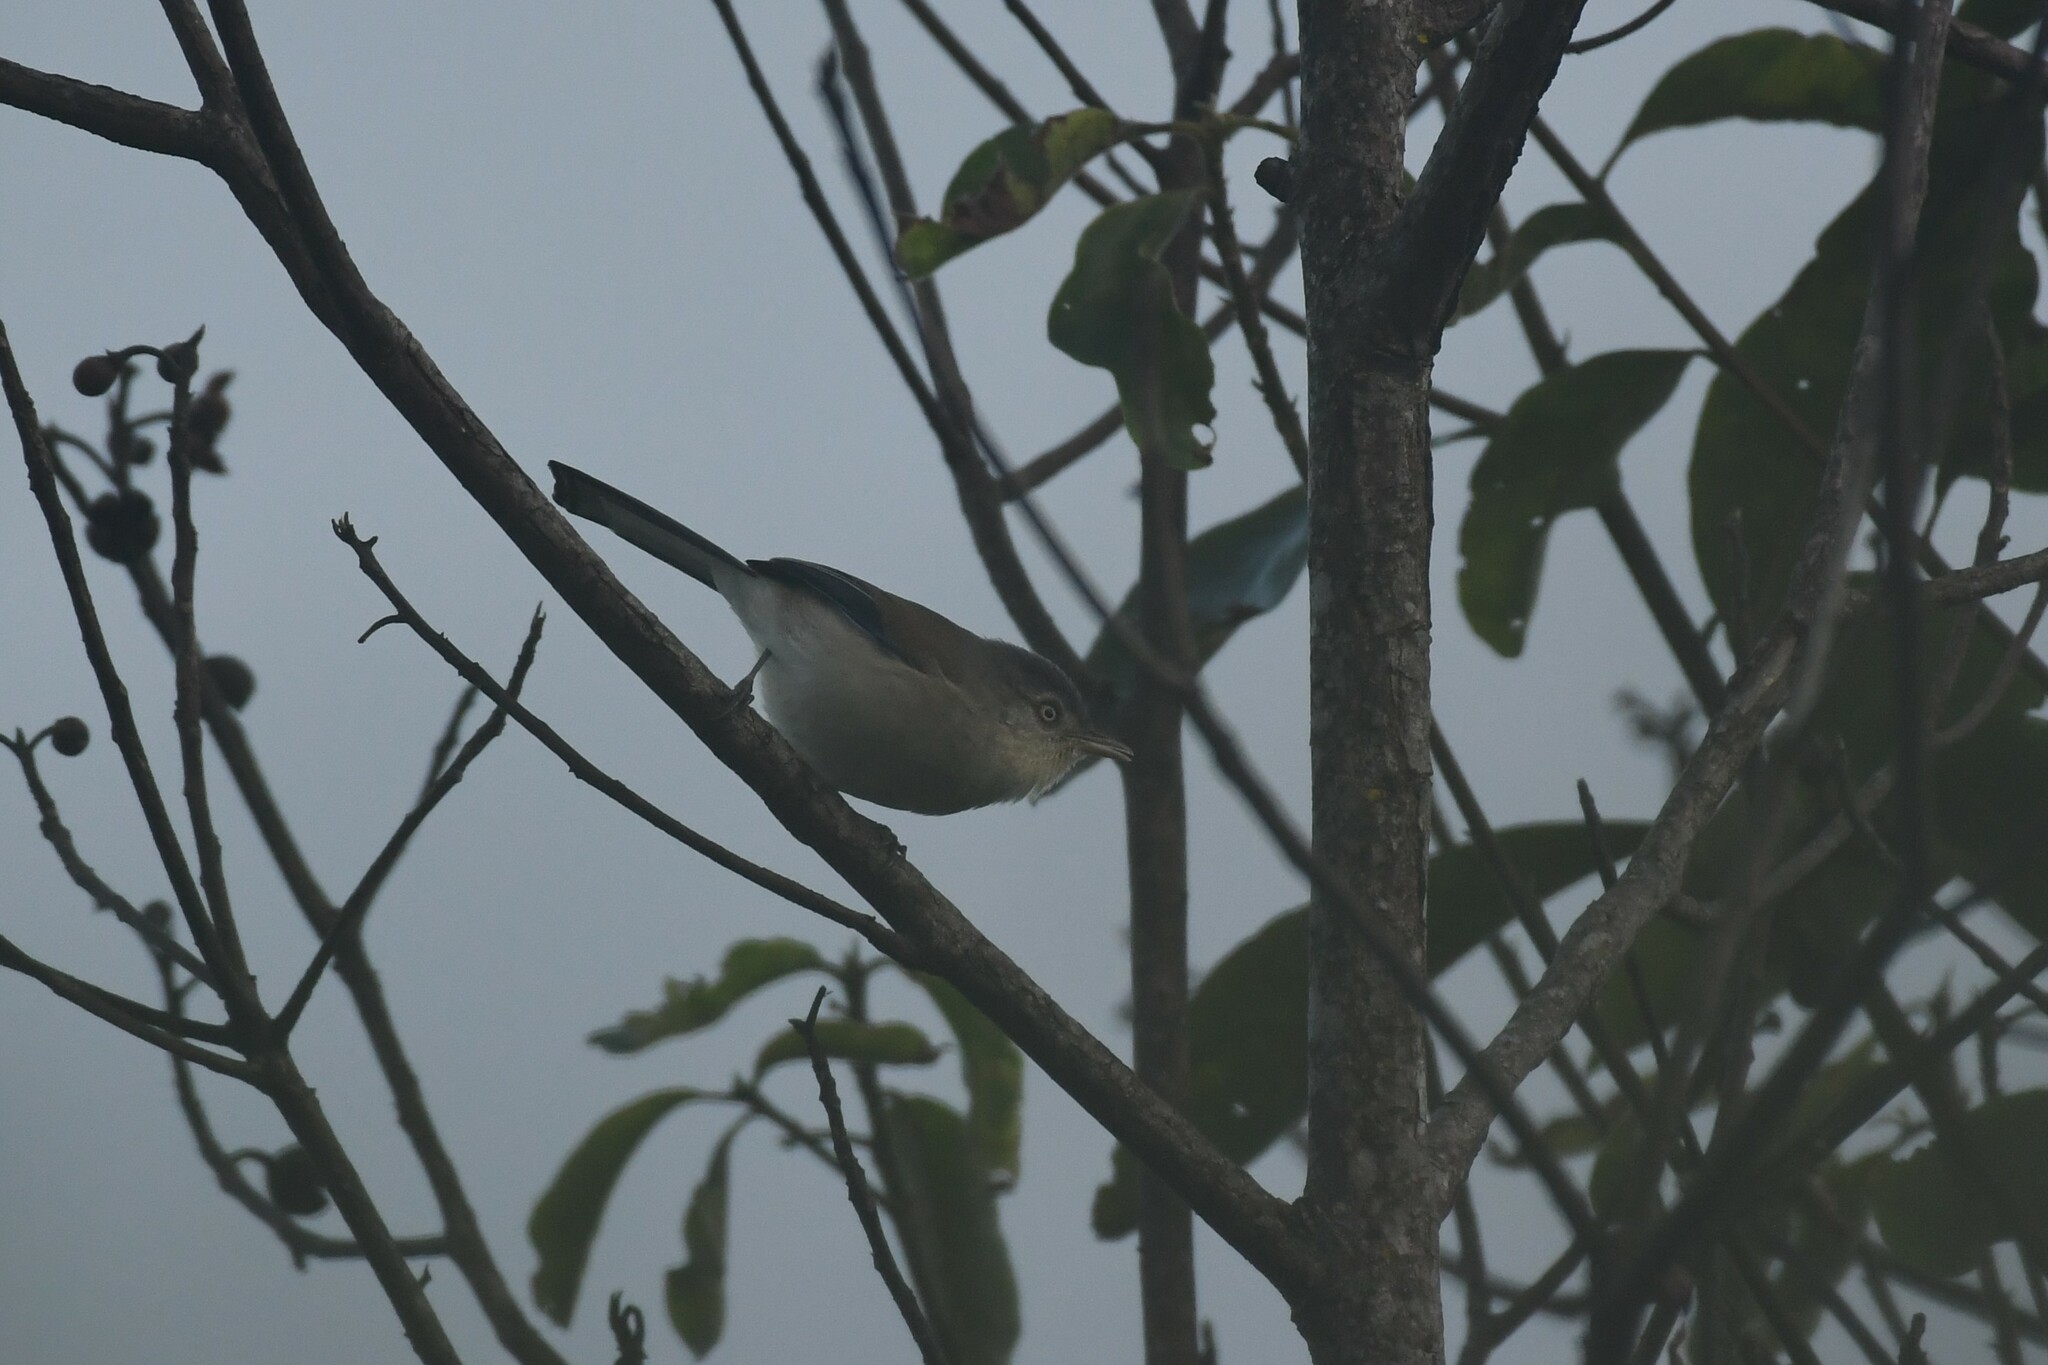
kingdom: Animalia
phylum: Chordata
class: Aves
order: Passeriformes
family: Leiothrichidae
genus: Minla
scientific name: Minla cyanouroptera
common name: Blue-winged minla
